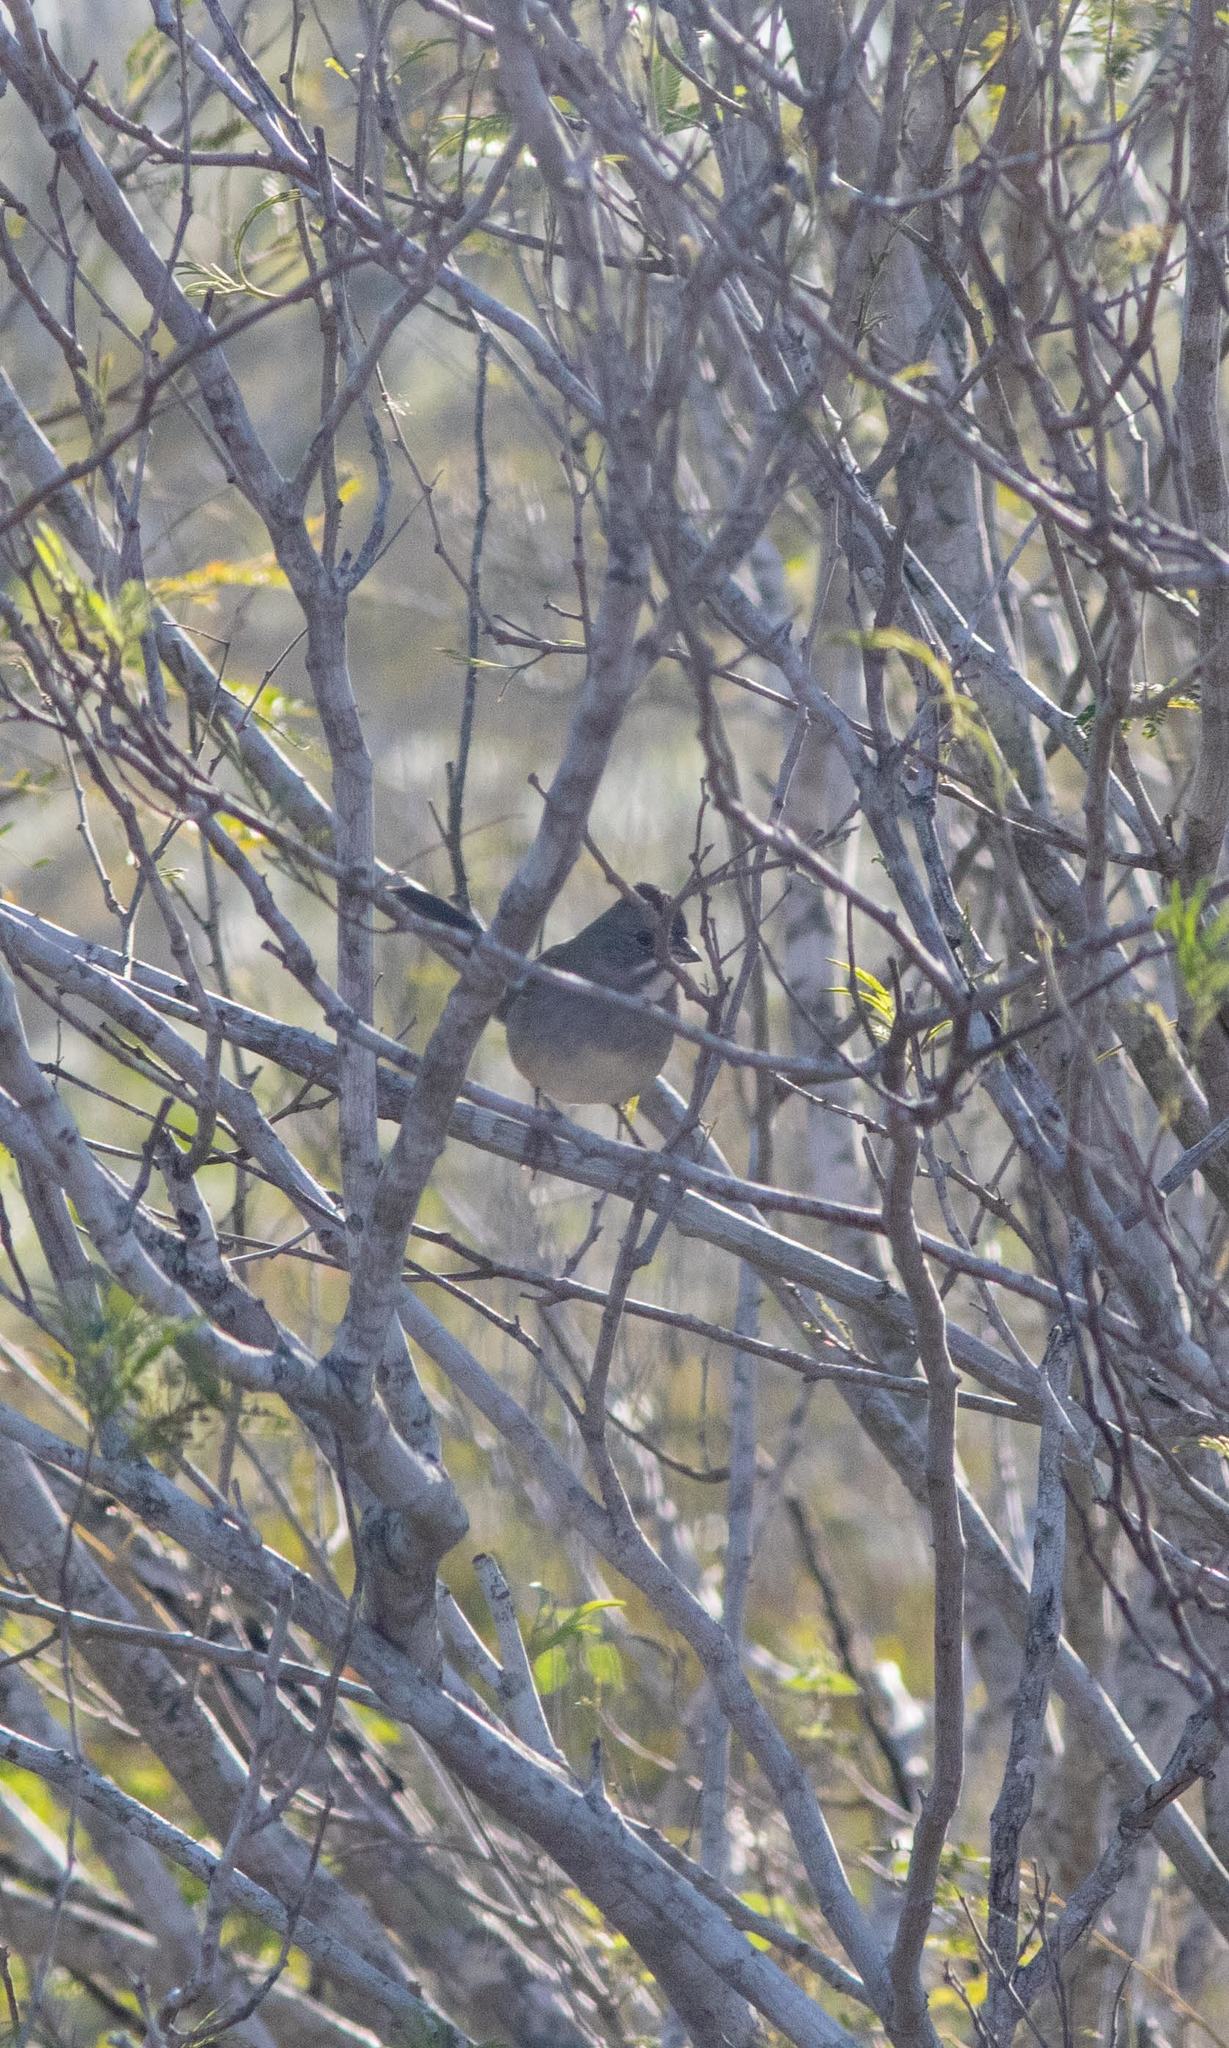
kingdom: Animalia
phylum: Chordata
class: Aves
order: Passeriformes
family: Passerellidae
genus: Pipilo
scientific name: Pipilo chlorurus
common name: Green-tailed towhee
